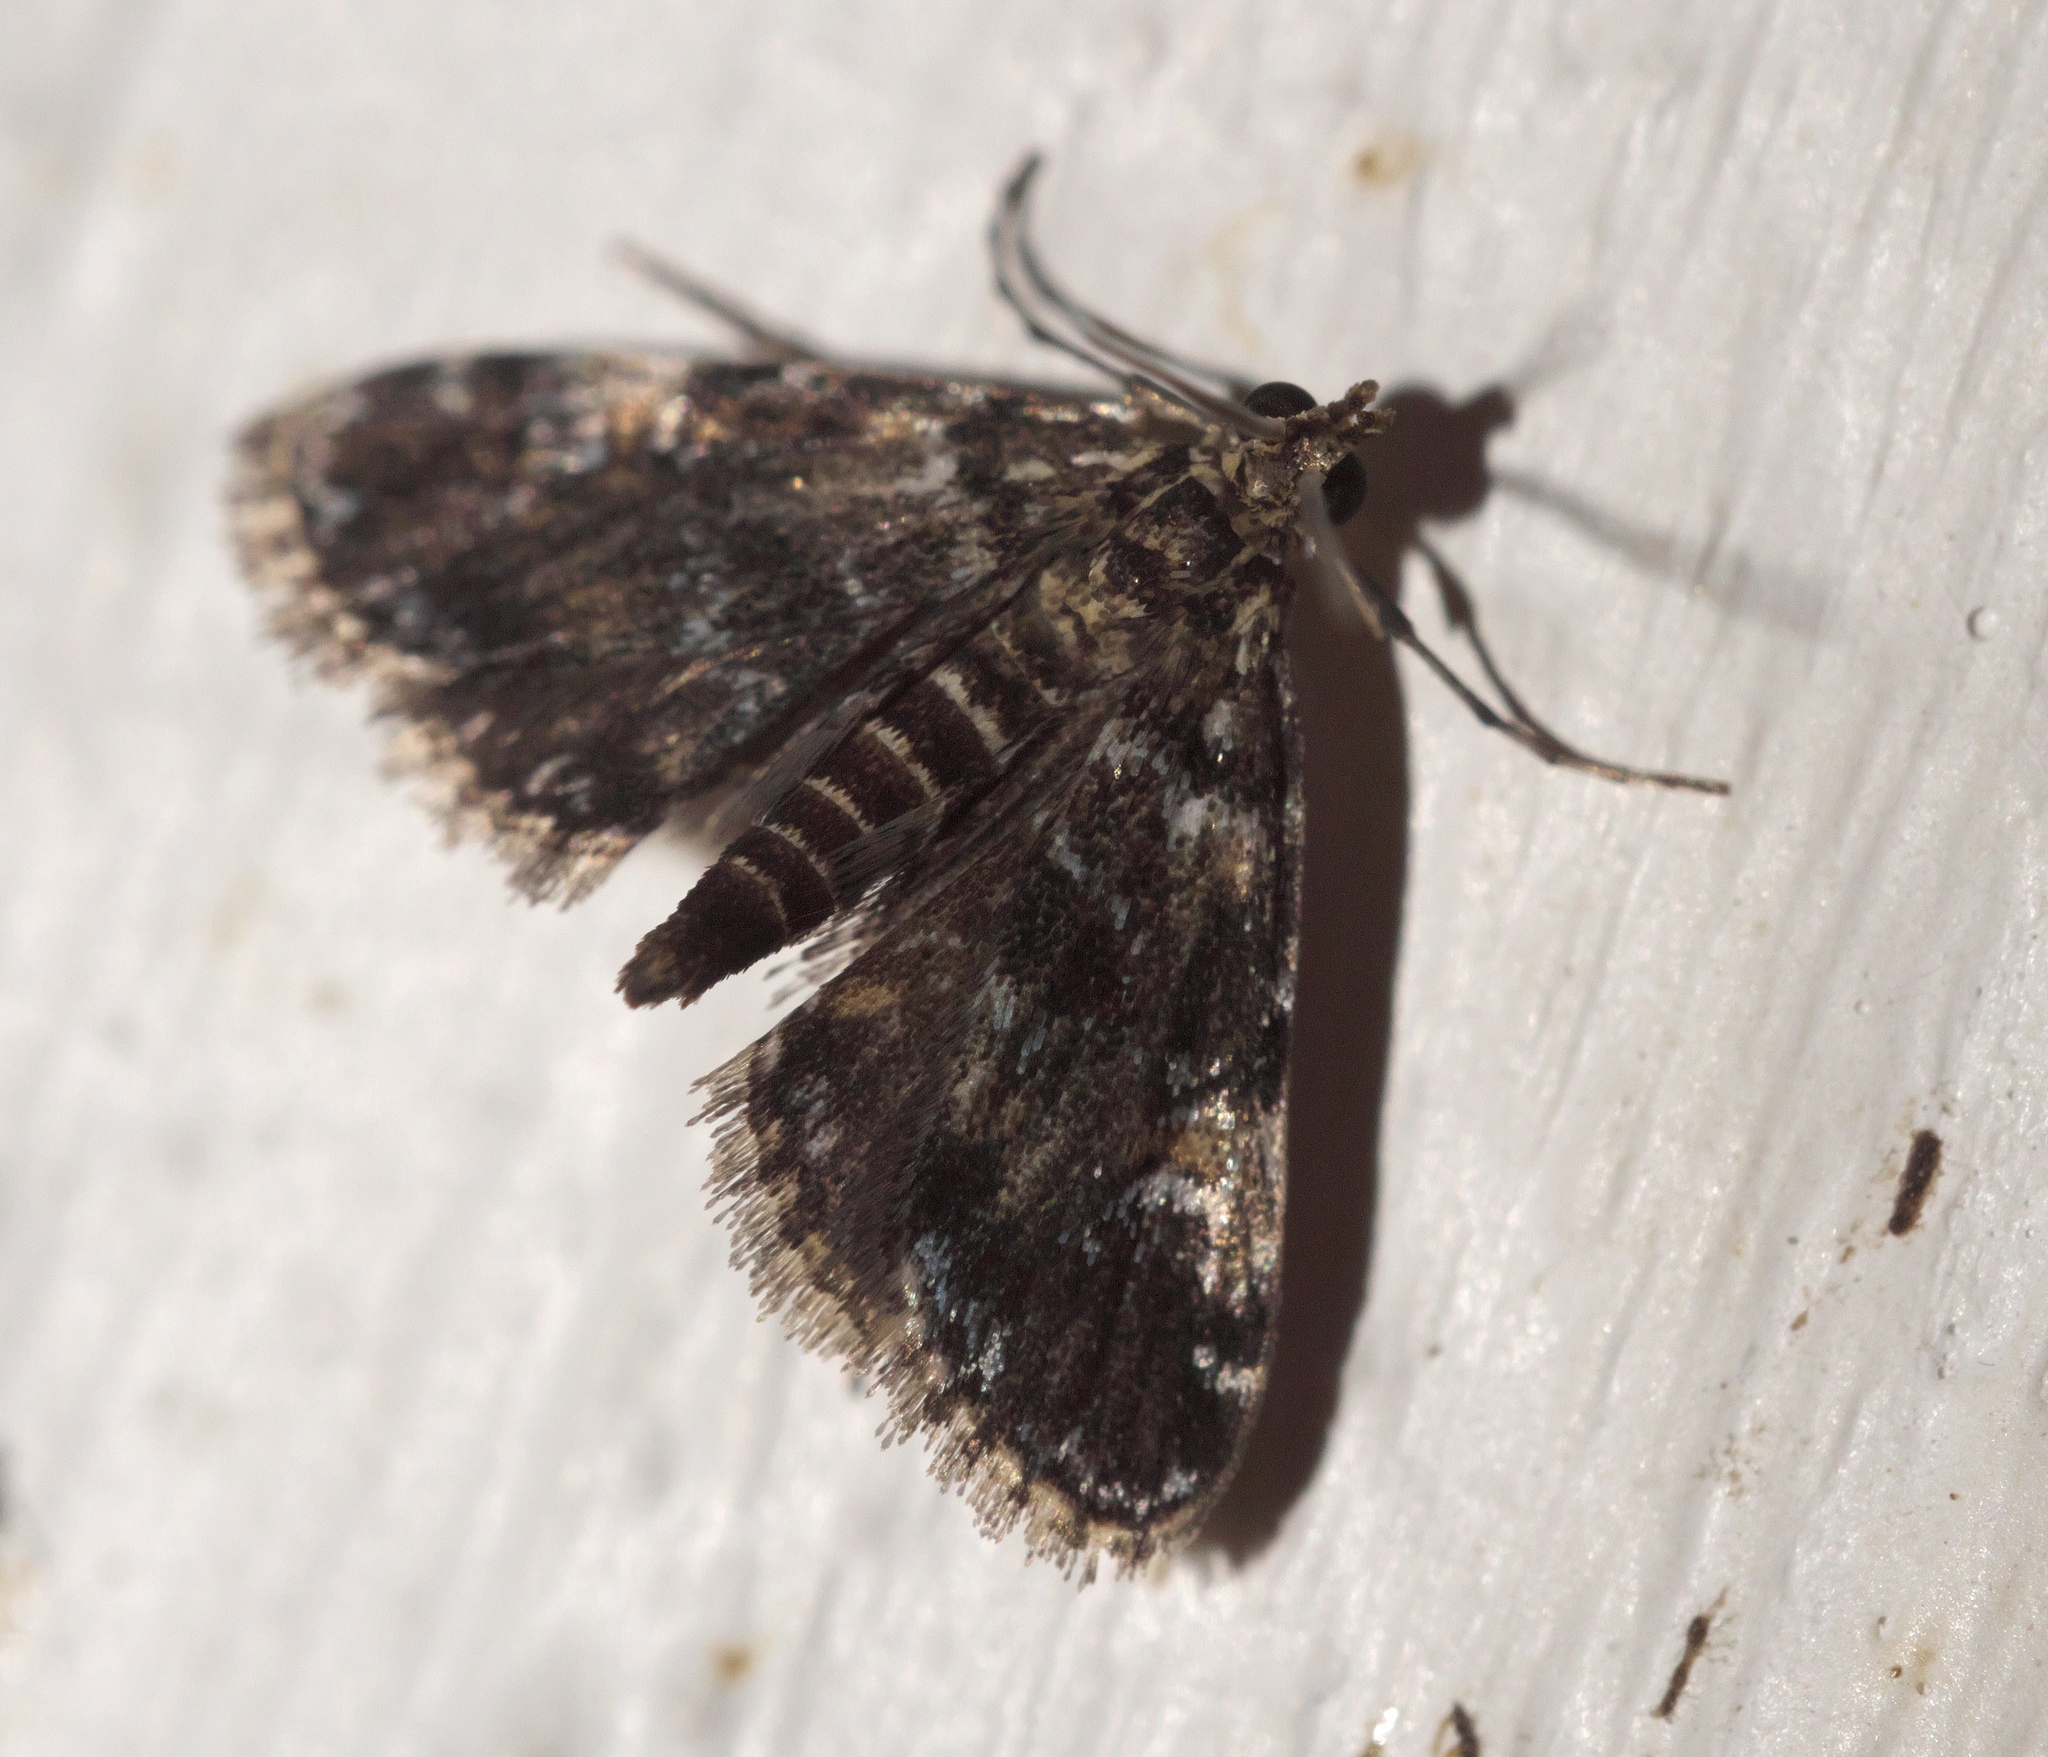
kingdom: Animalia
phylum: Arthropoda
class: Insecta
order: Lepidoptera
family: Crambidae
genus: Elophila
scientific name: Elophila obliteralis
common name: Waterlily leafcutter moth
